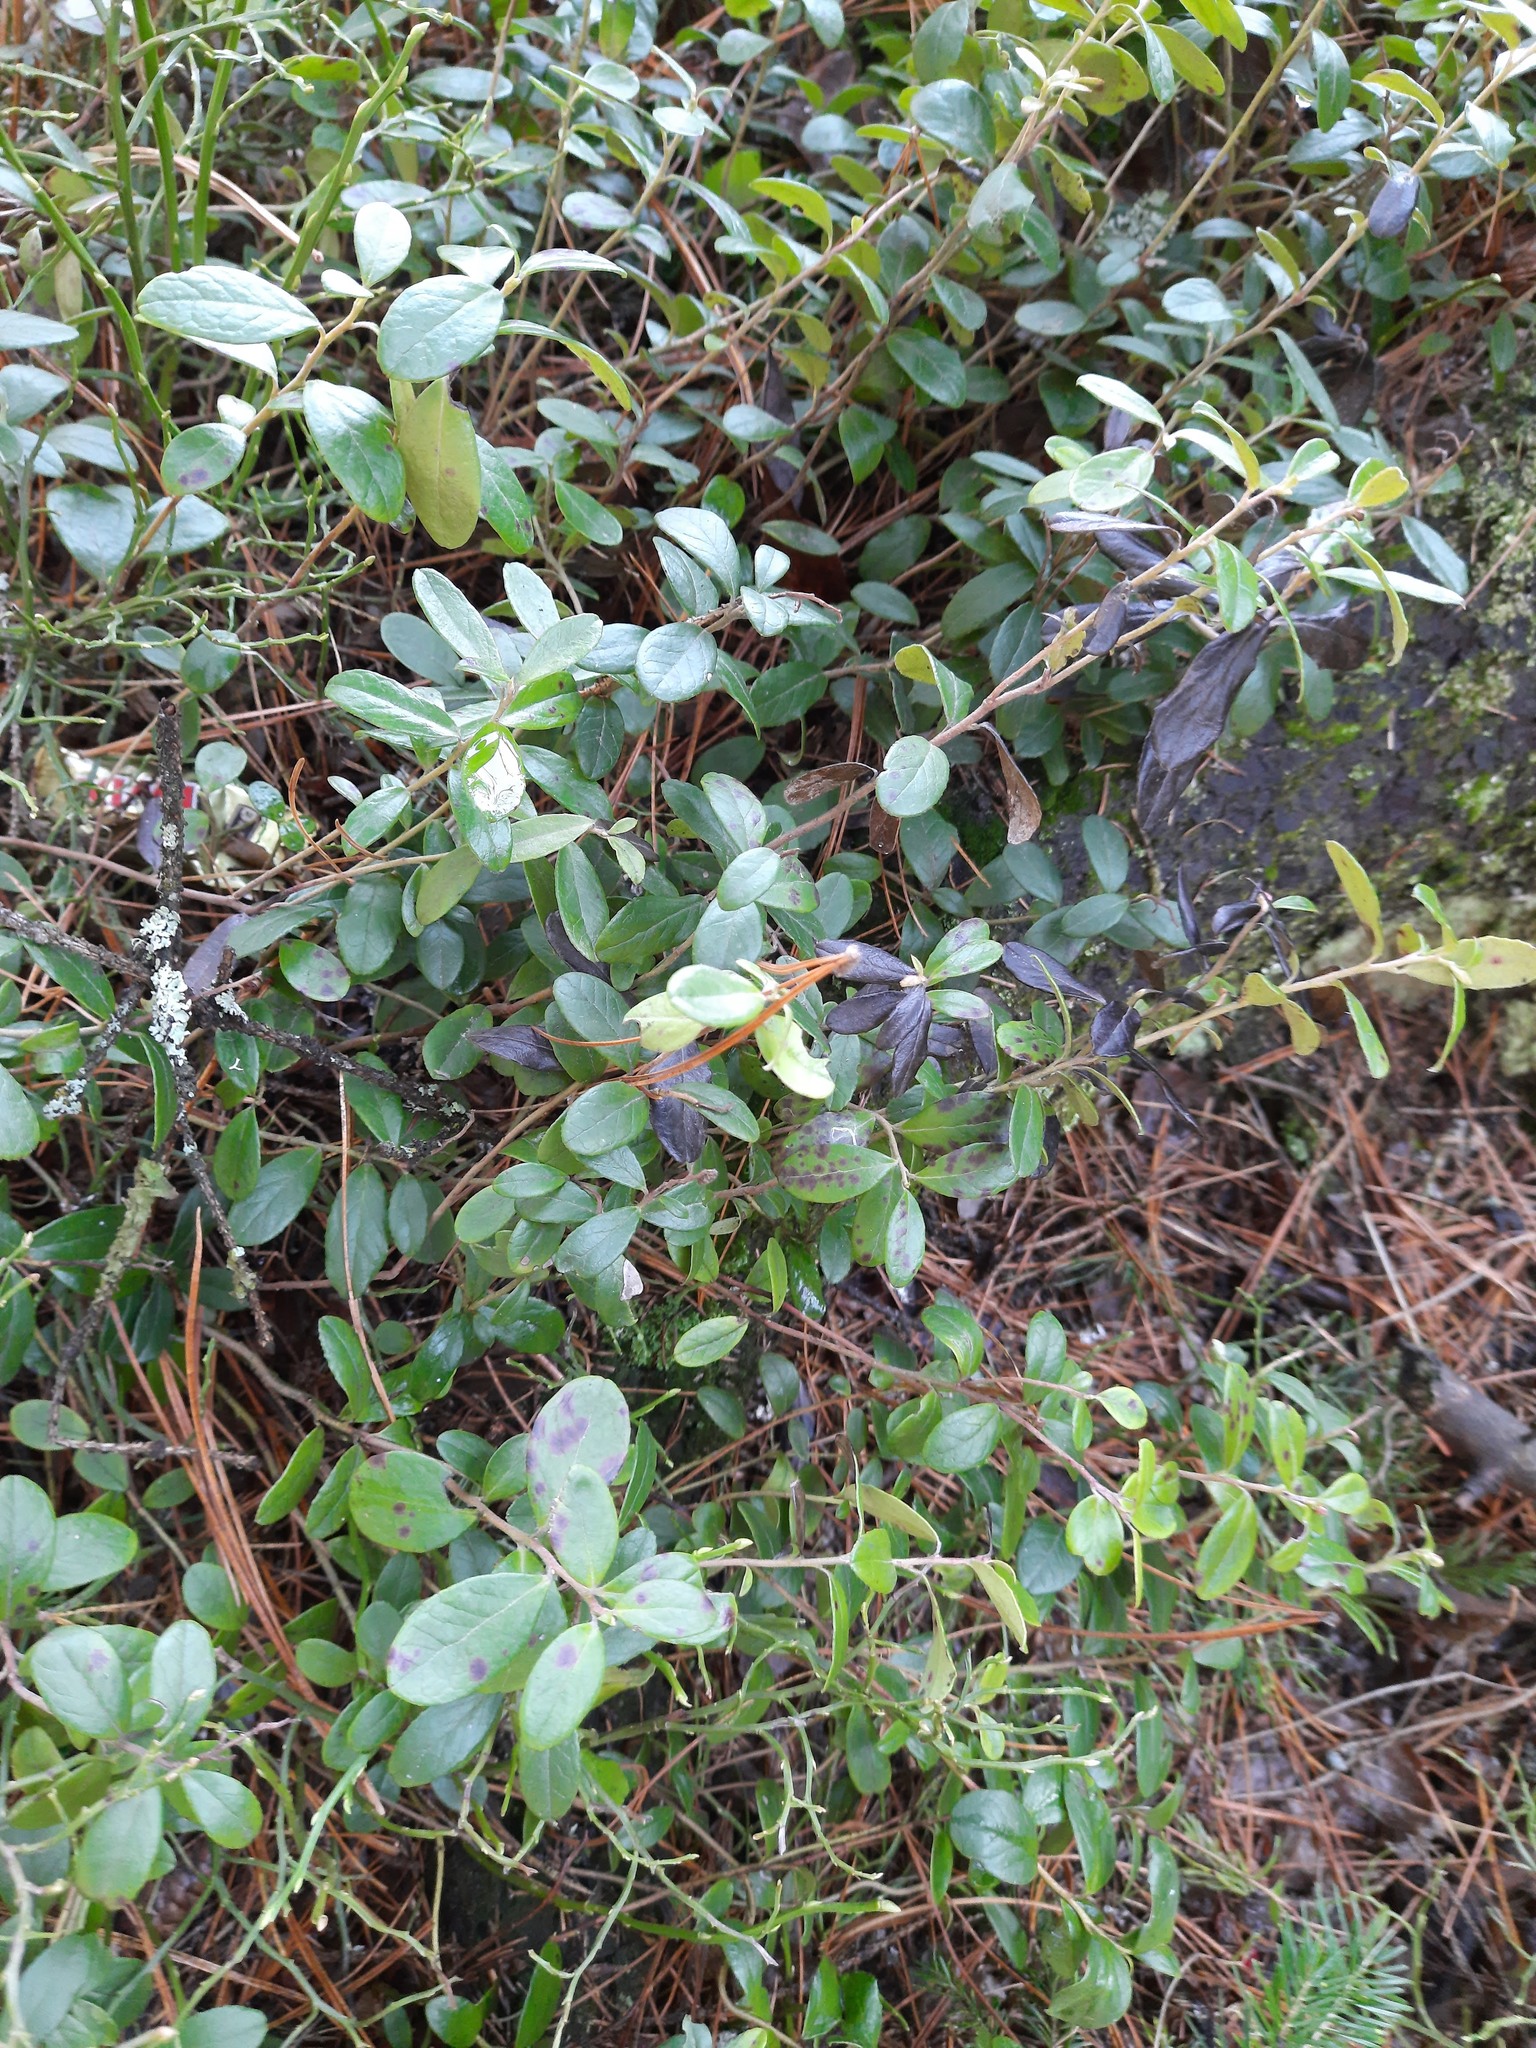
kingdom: Plantae
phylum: Tracheophyta
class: Magnoliopsida
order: Ericales
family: Ericaceae
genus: Vaccinium
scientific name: Vaccinium vitis-idaea
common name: Cowberry
